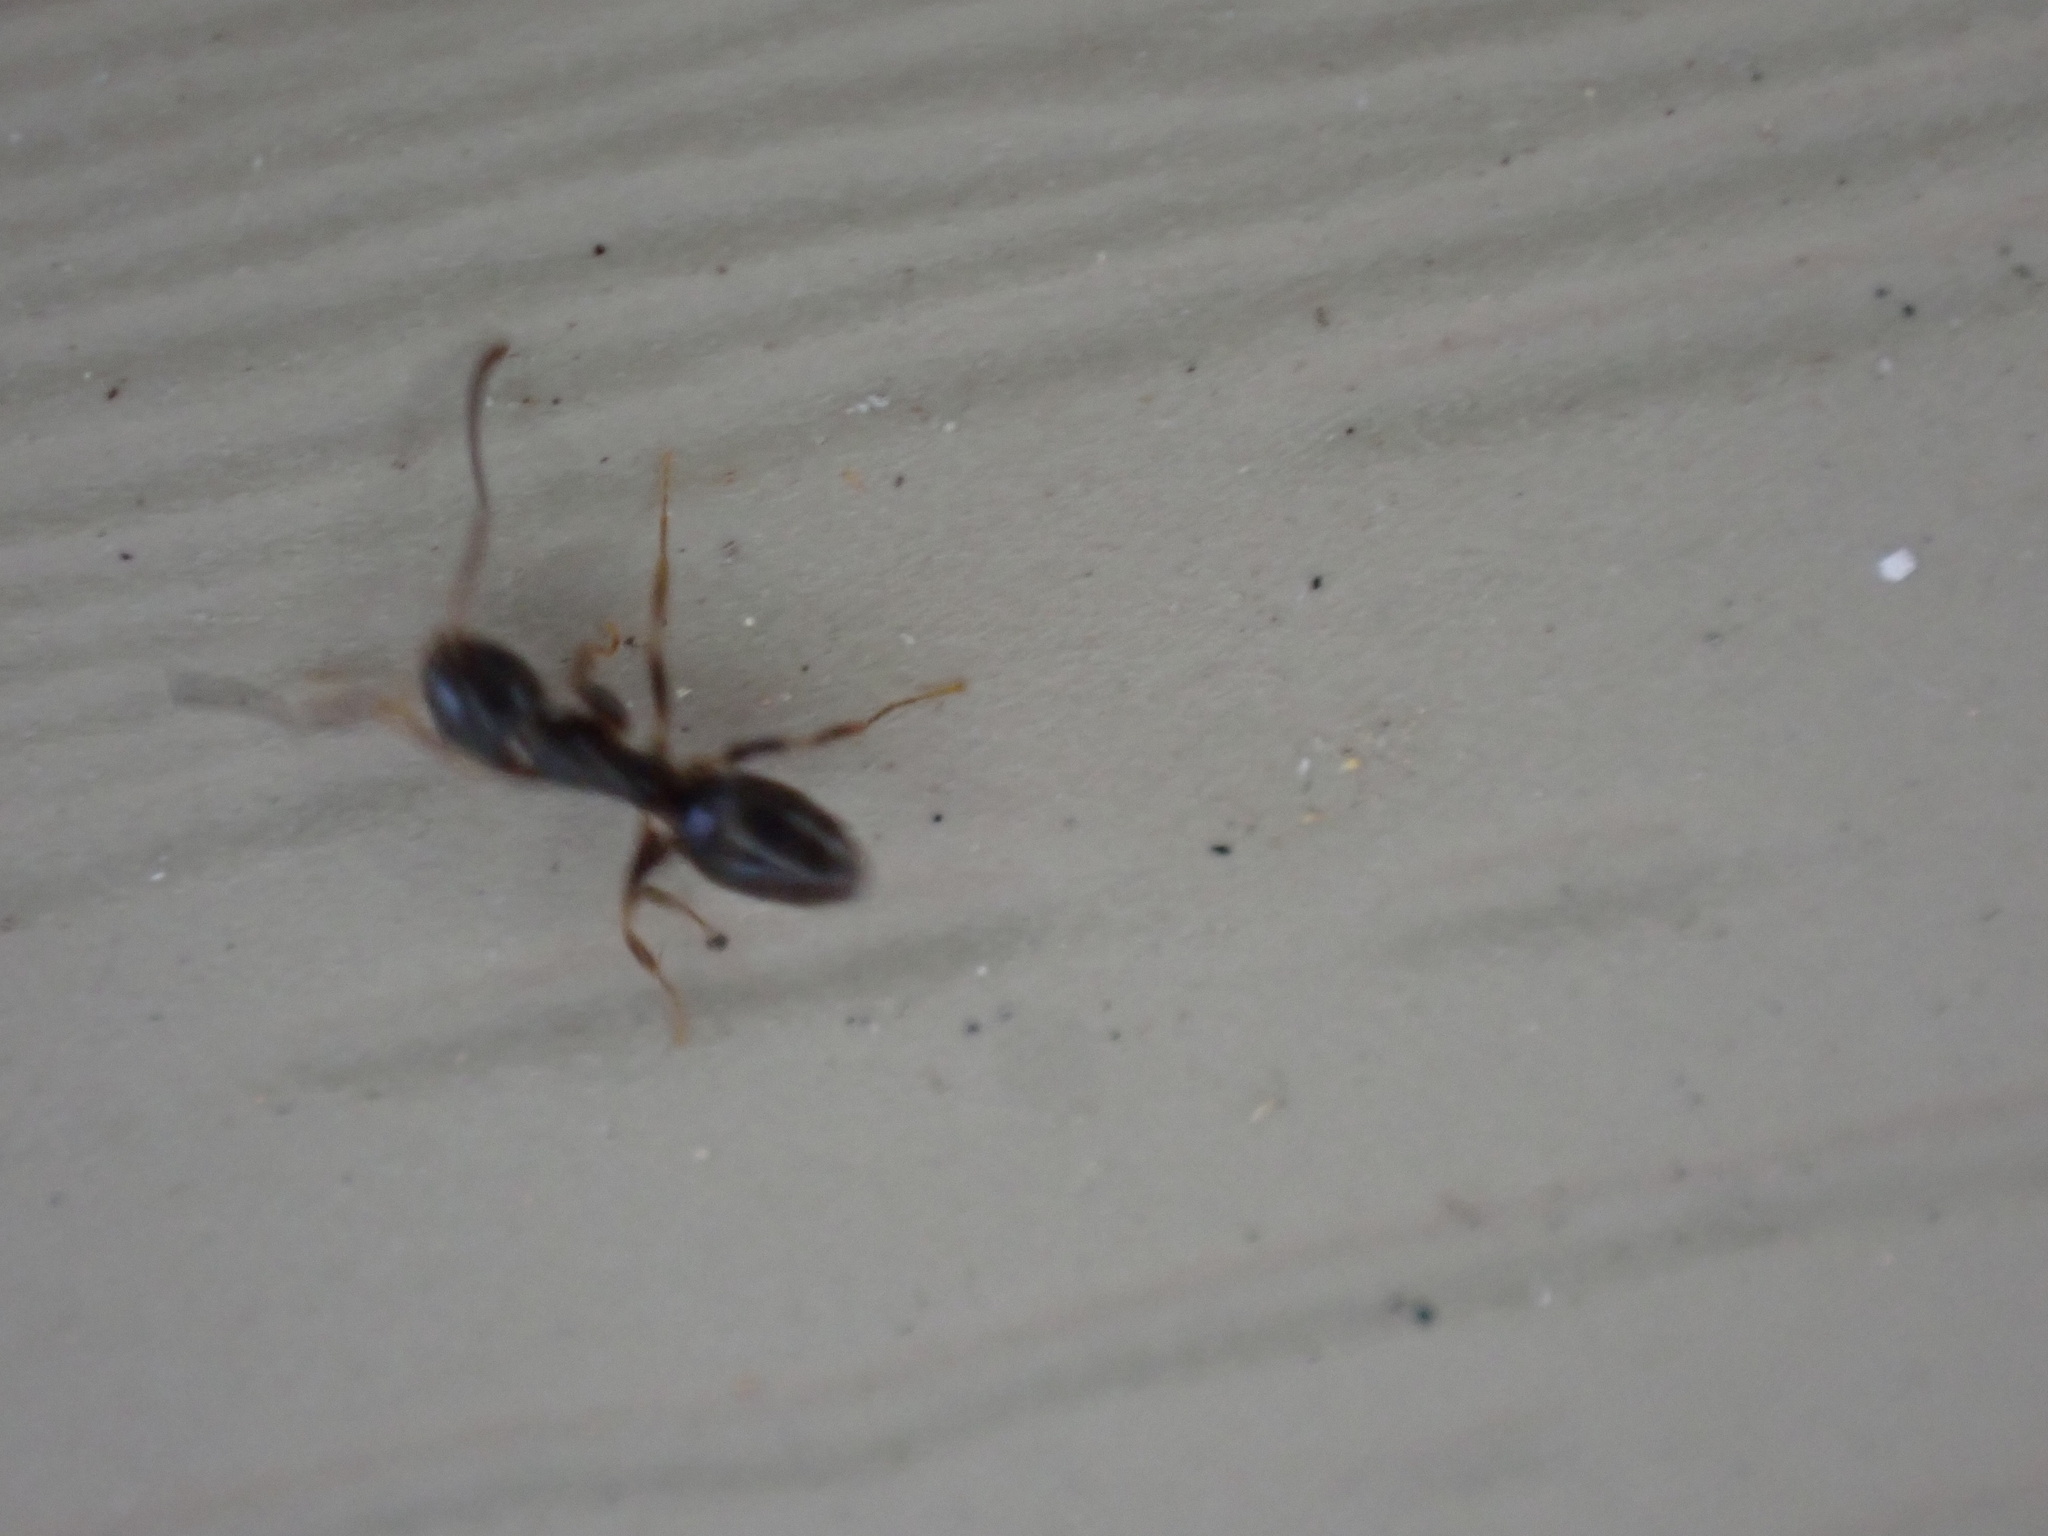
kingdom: Animalia
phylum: Arthropoda
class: Insecta
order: Hymenoptera
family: Formicidae
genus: Tapinoma
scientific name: Tapinoma sessile
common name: Odorous house ant
